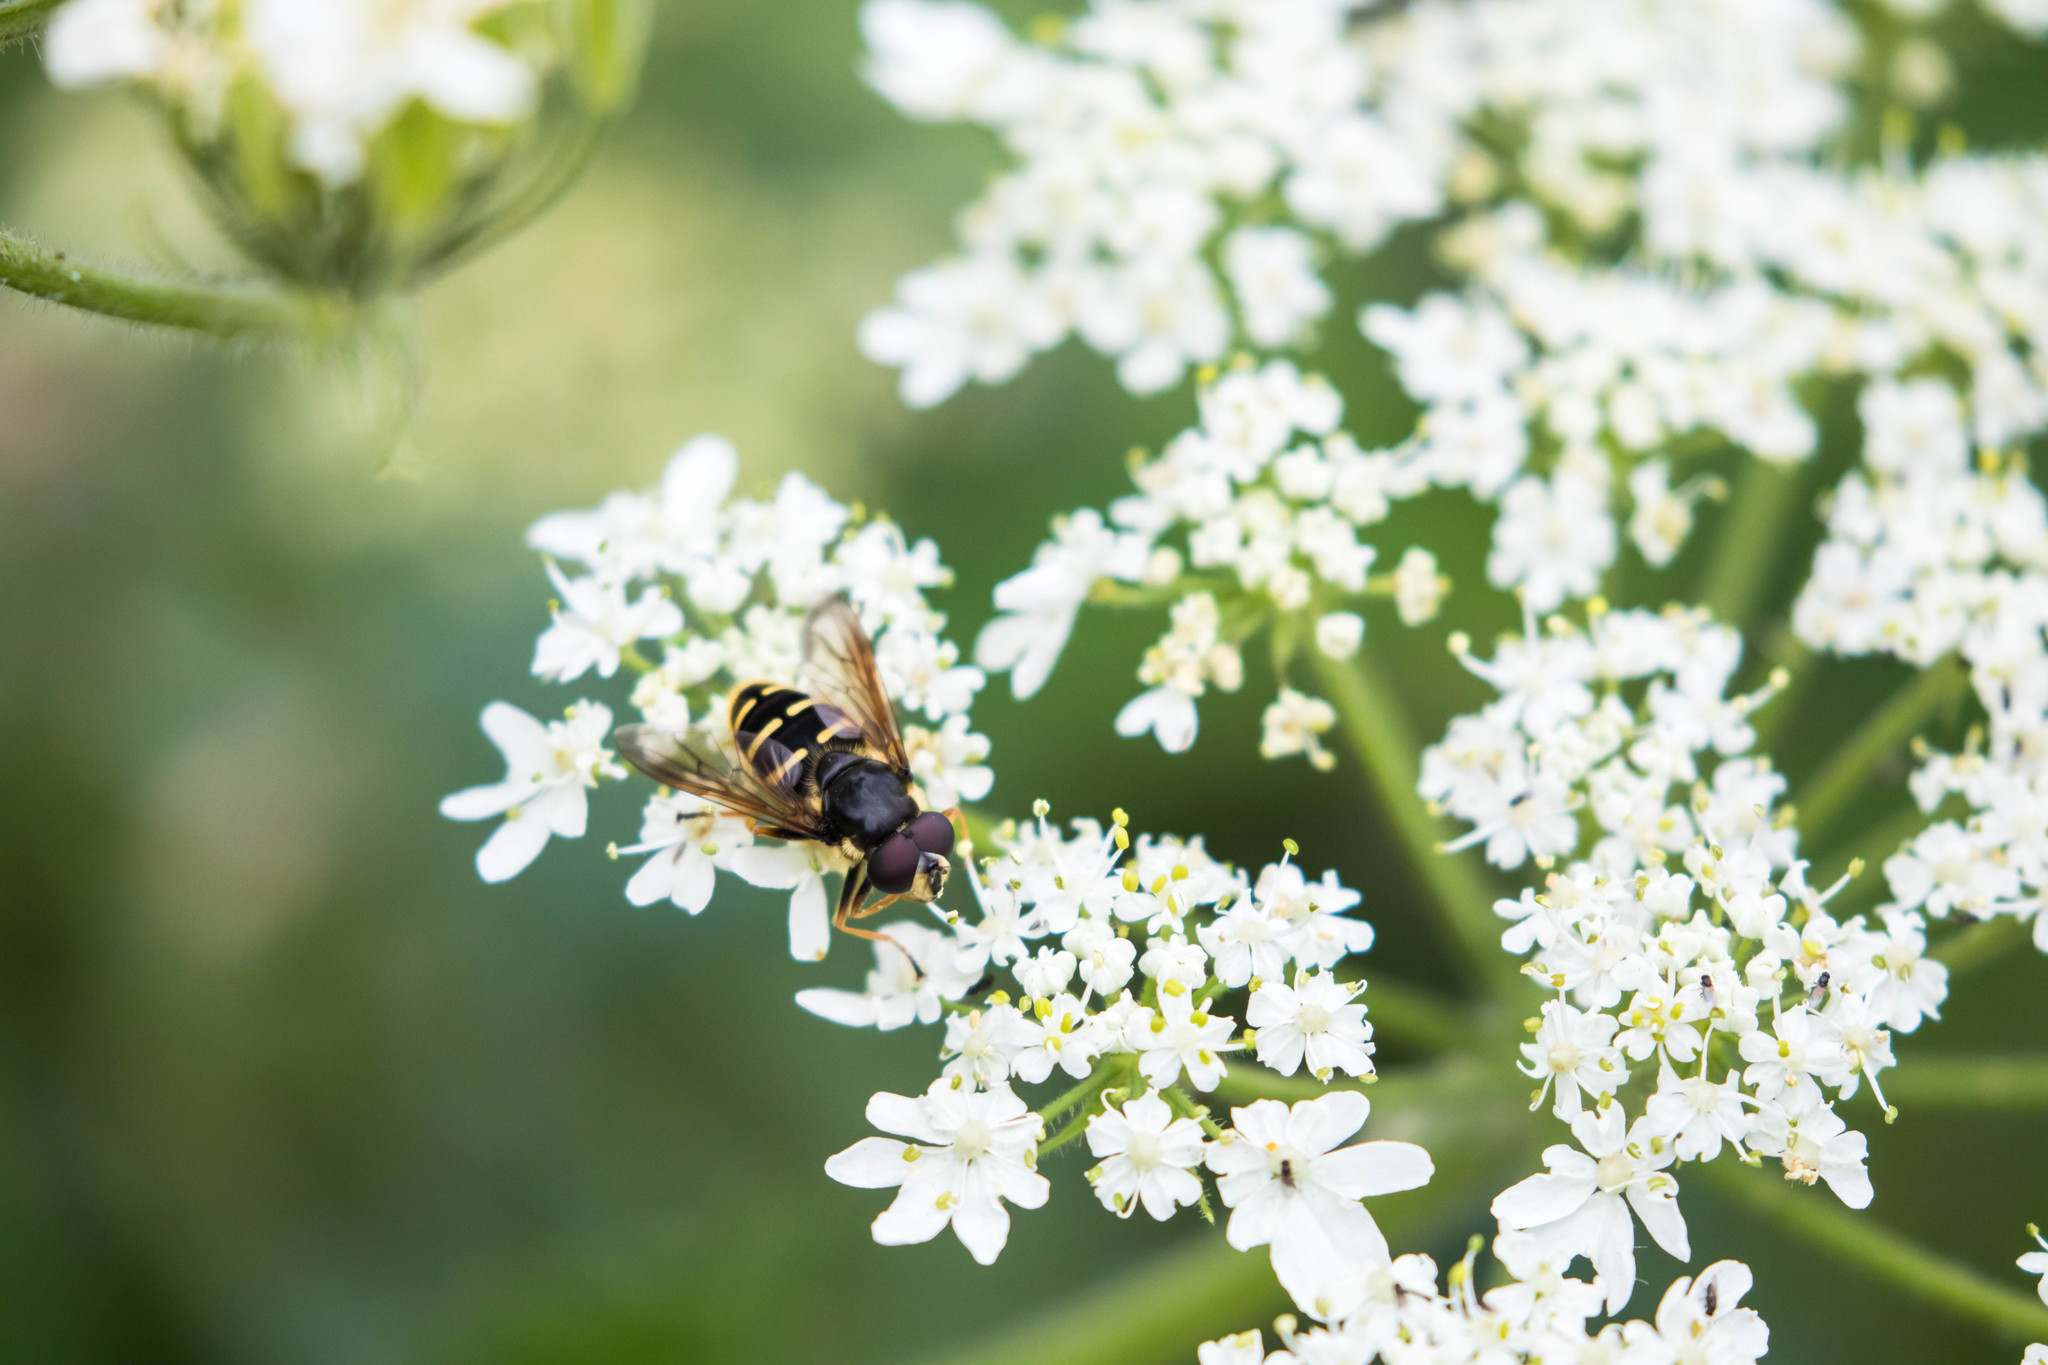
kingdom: Animalia
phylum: Arthropoda
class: Insecta
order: Diptera
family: Syrphidae
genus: Sericomyia
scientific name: Sericomyia chalcopyga
